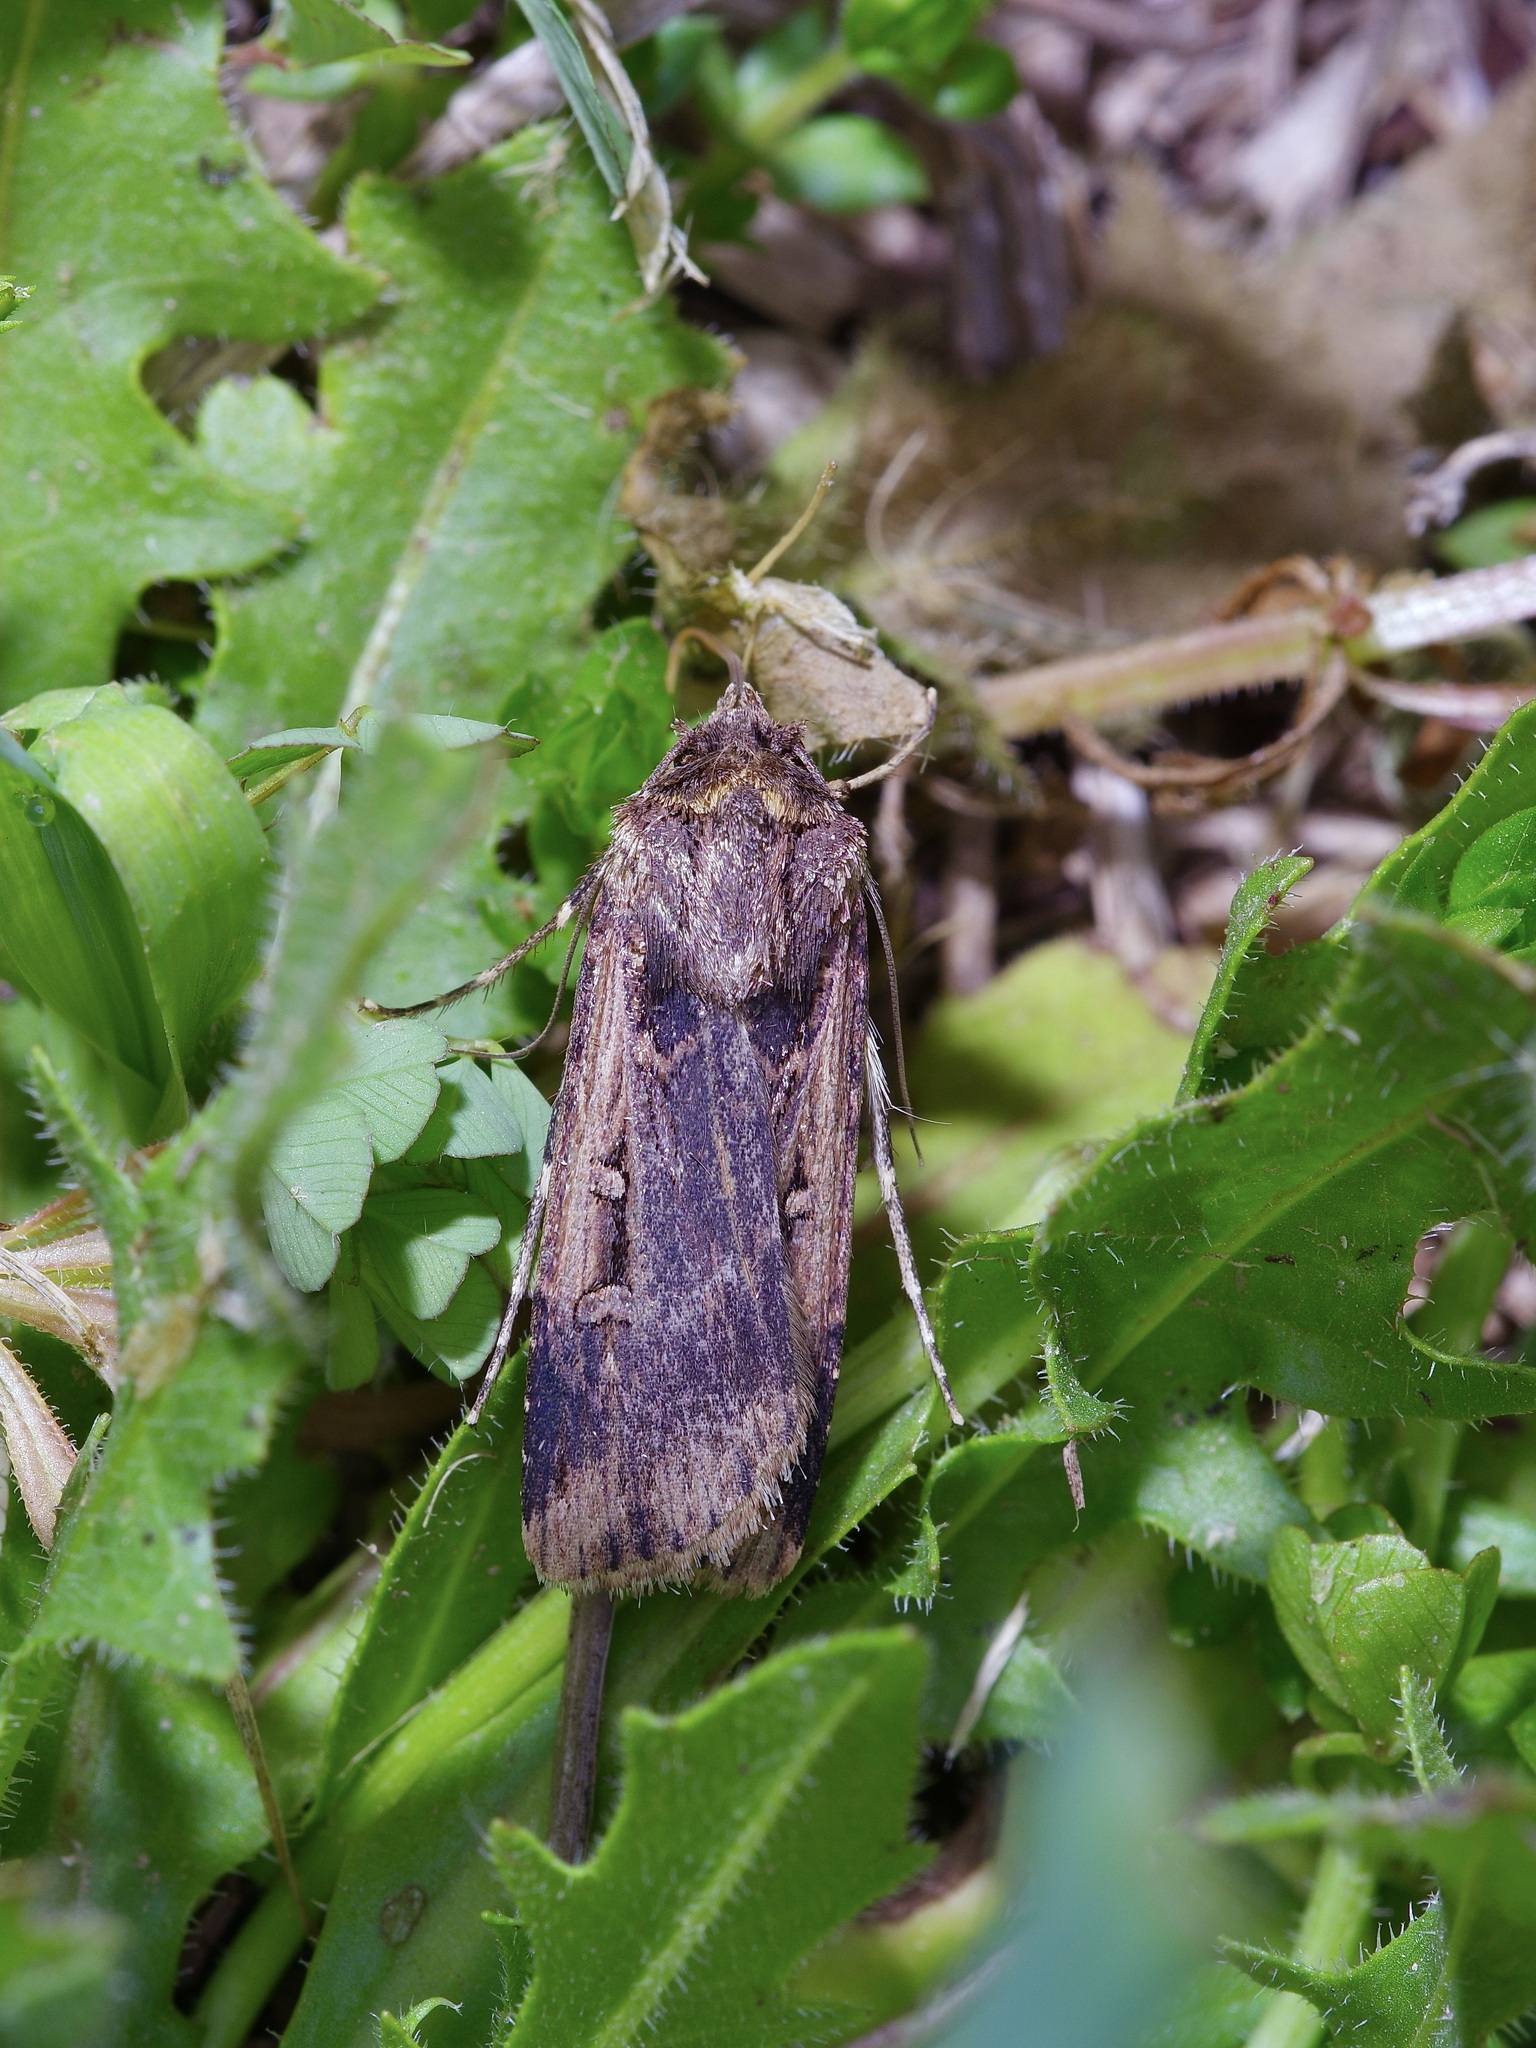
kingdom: Animalia
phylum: Arthropoda
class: Insecta
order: Lepidoptera
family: Noctuidae
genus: Feltia
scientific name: Feltia subterranea
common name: Granulate cutworm
